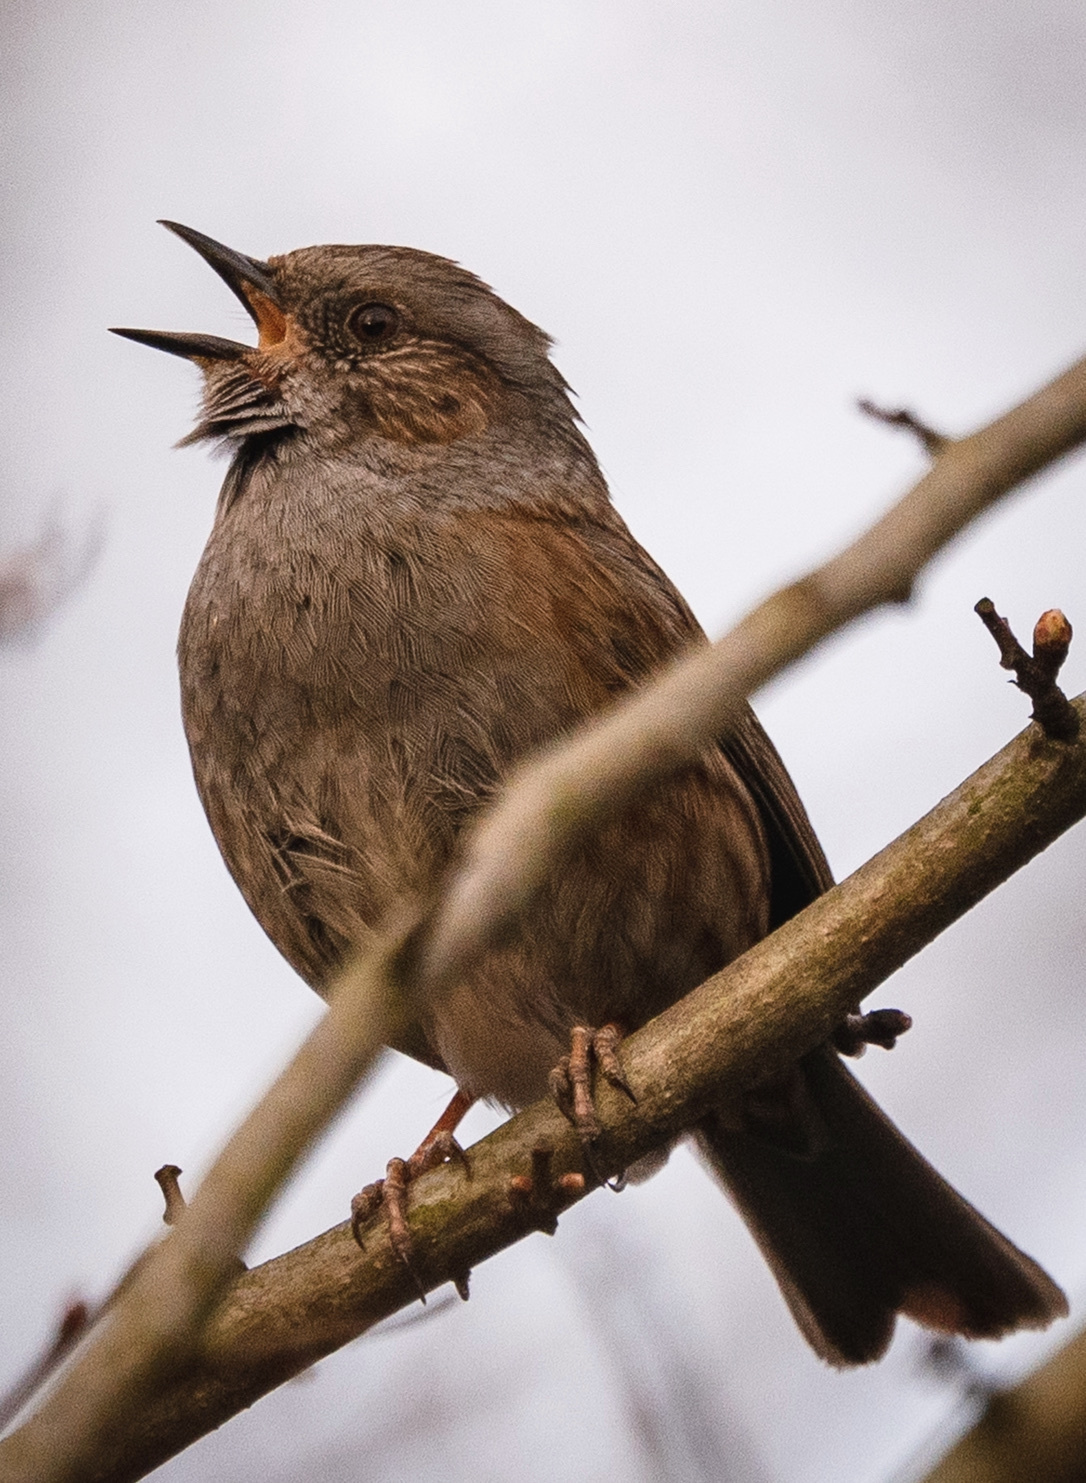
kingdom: Animalia
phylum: Chordata
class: Aves
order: Passeriformes
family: Prunellidae
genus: Prunella
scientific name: Prunella modularis
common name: Dunnock
